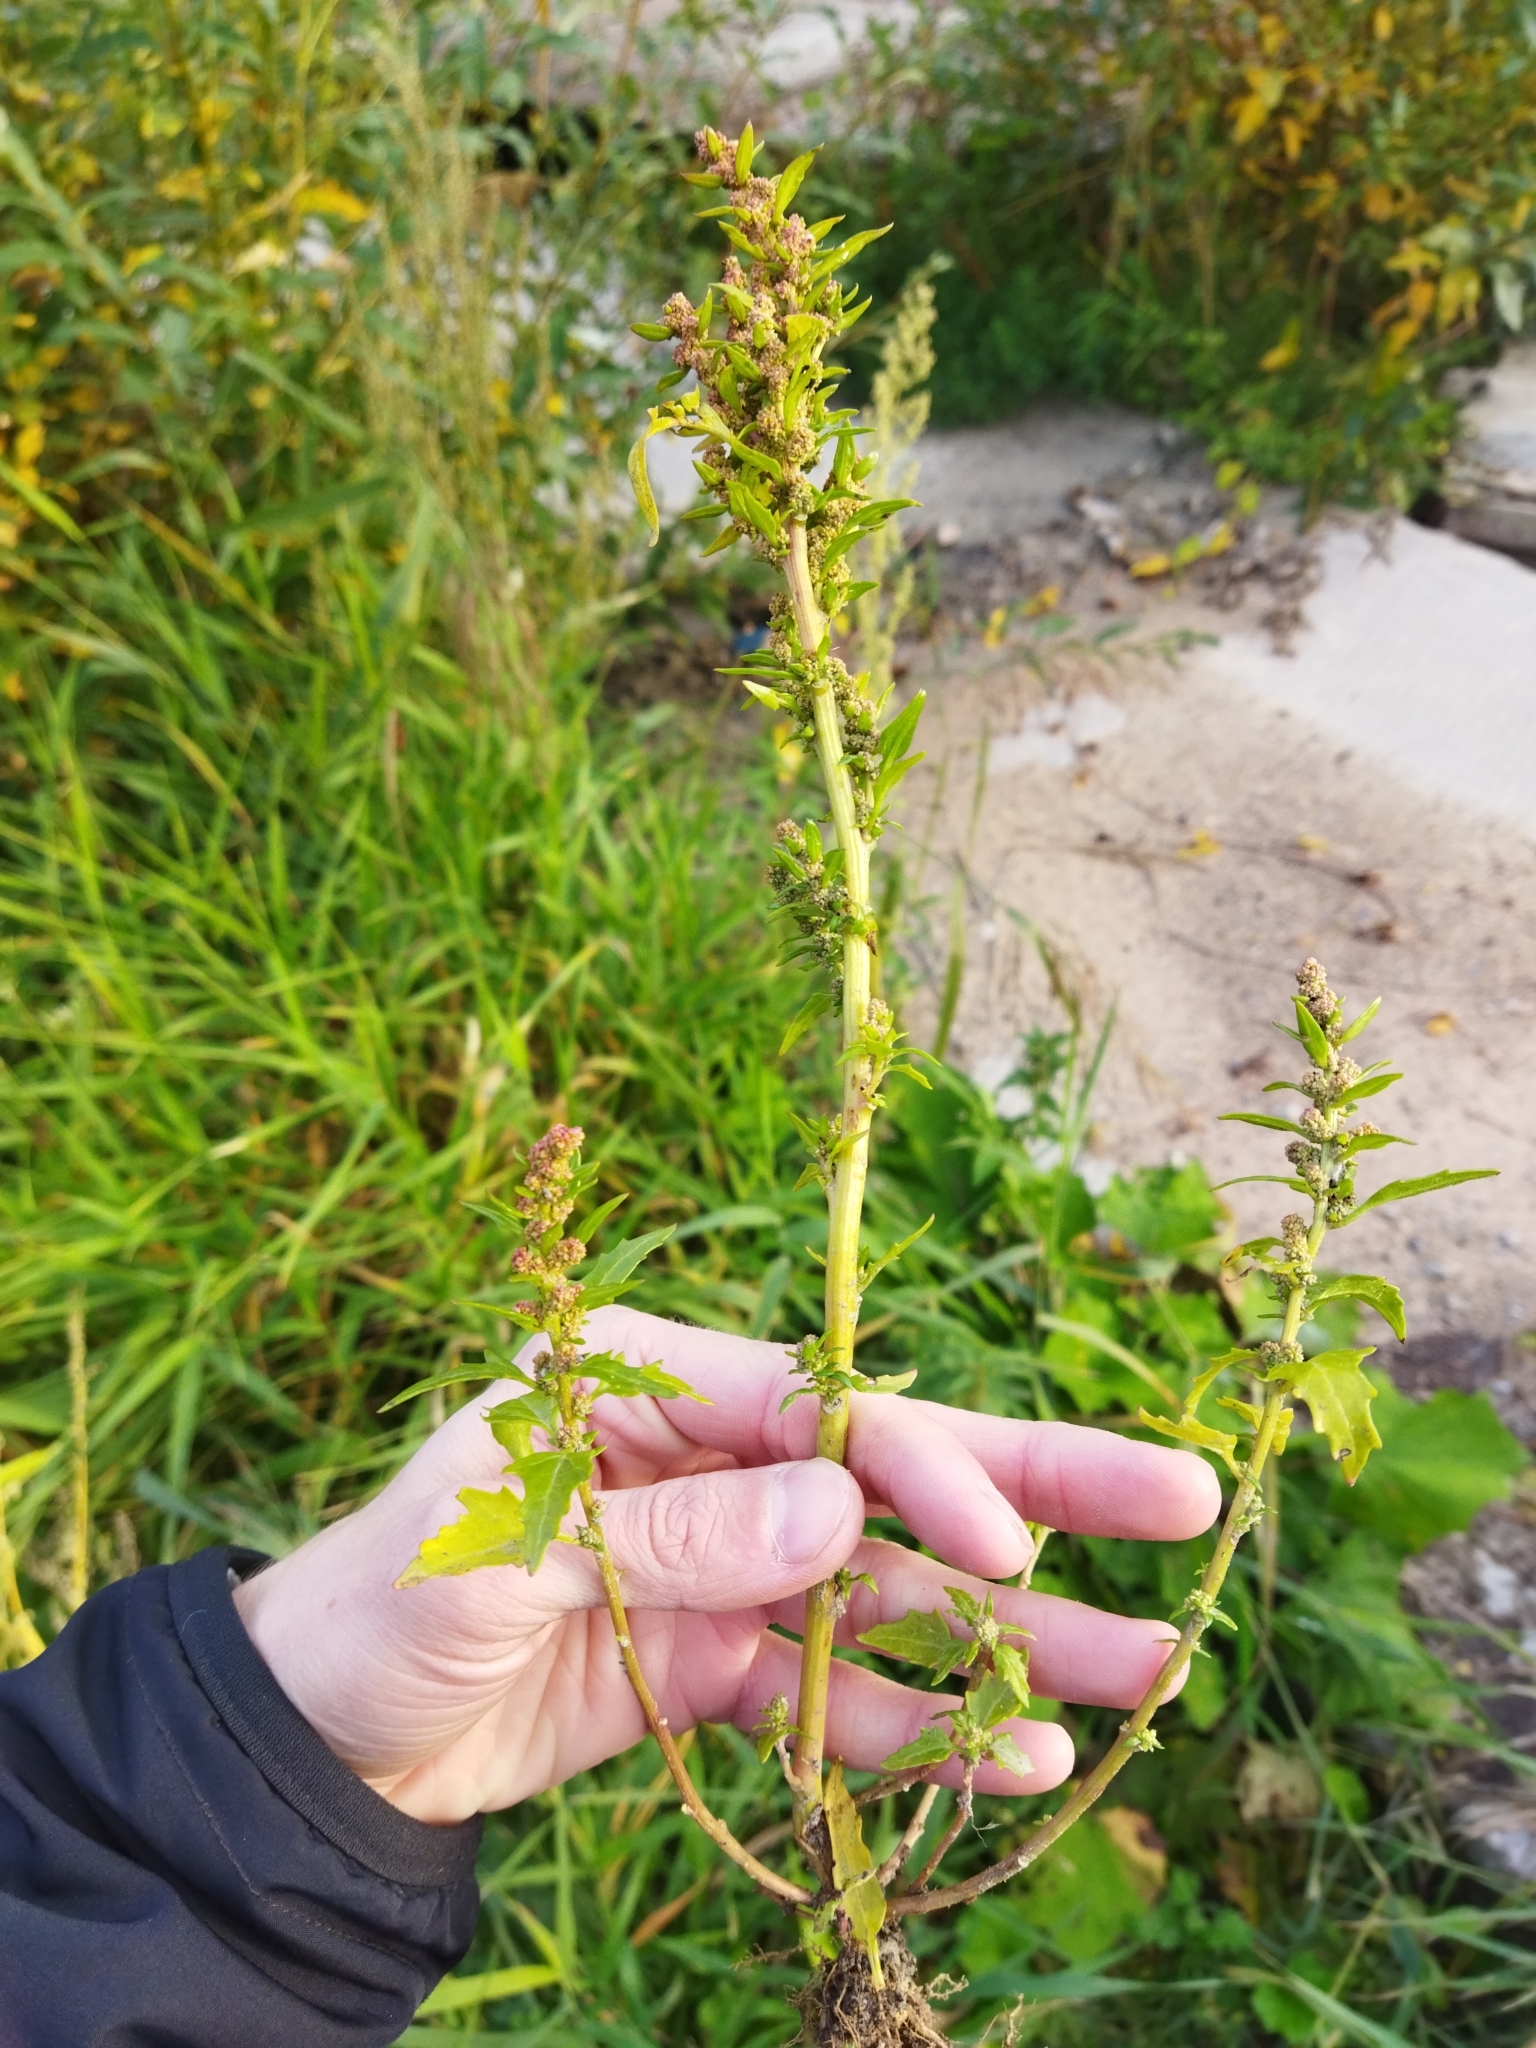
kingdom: Plantae
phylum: Tracheophyta
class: Magnoliopsida
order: Caryophyllales
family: Amaranthaceae
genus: Oxybasis
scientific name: Oxybasis rubra
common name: Red goosefoot
